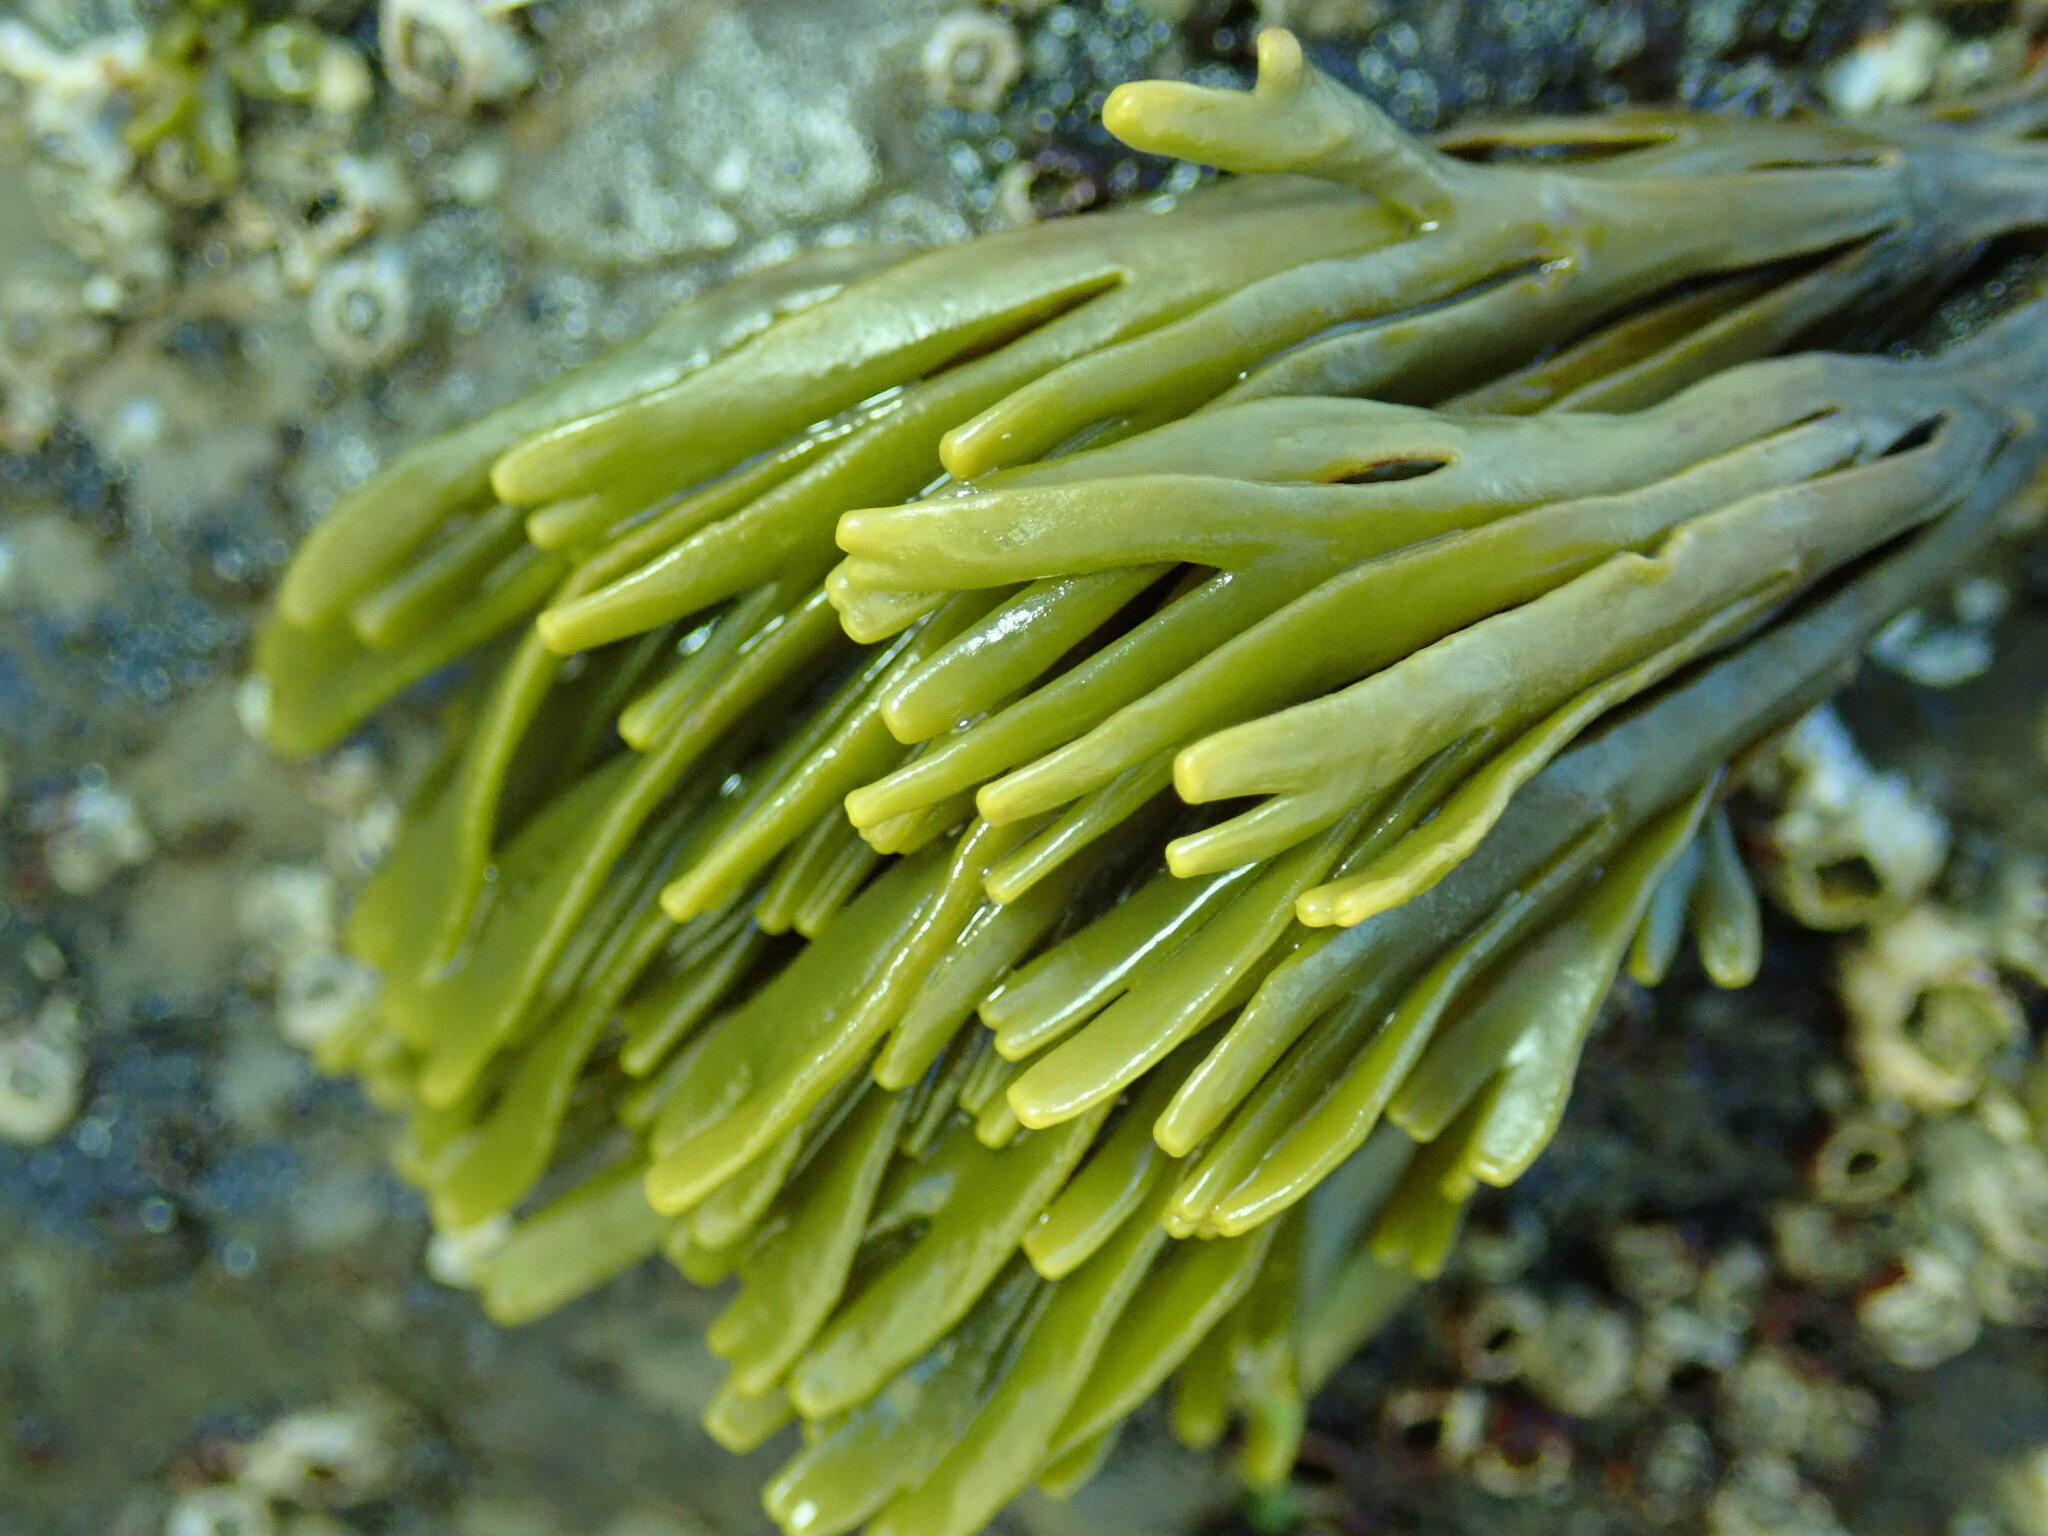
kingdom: Chromista
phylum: Ochrophyta
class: Phaeophyceae
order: Fucales
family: Fucaceae
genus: Pelvetiopsis
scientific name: Pelvetiopsis limitata
